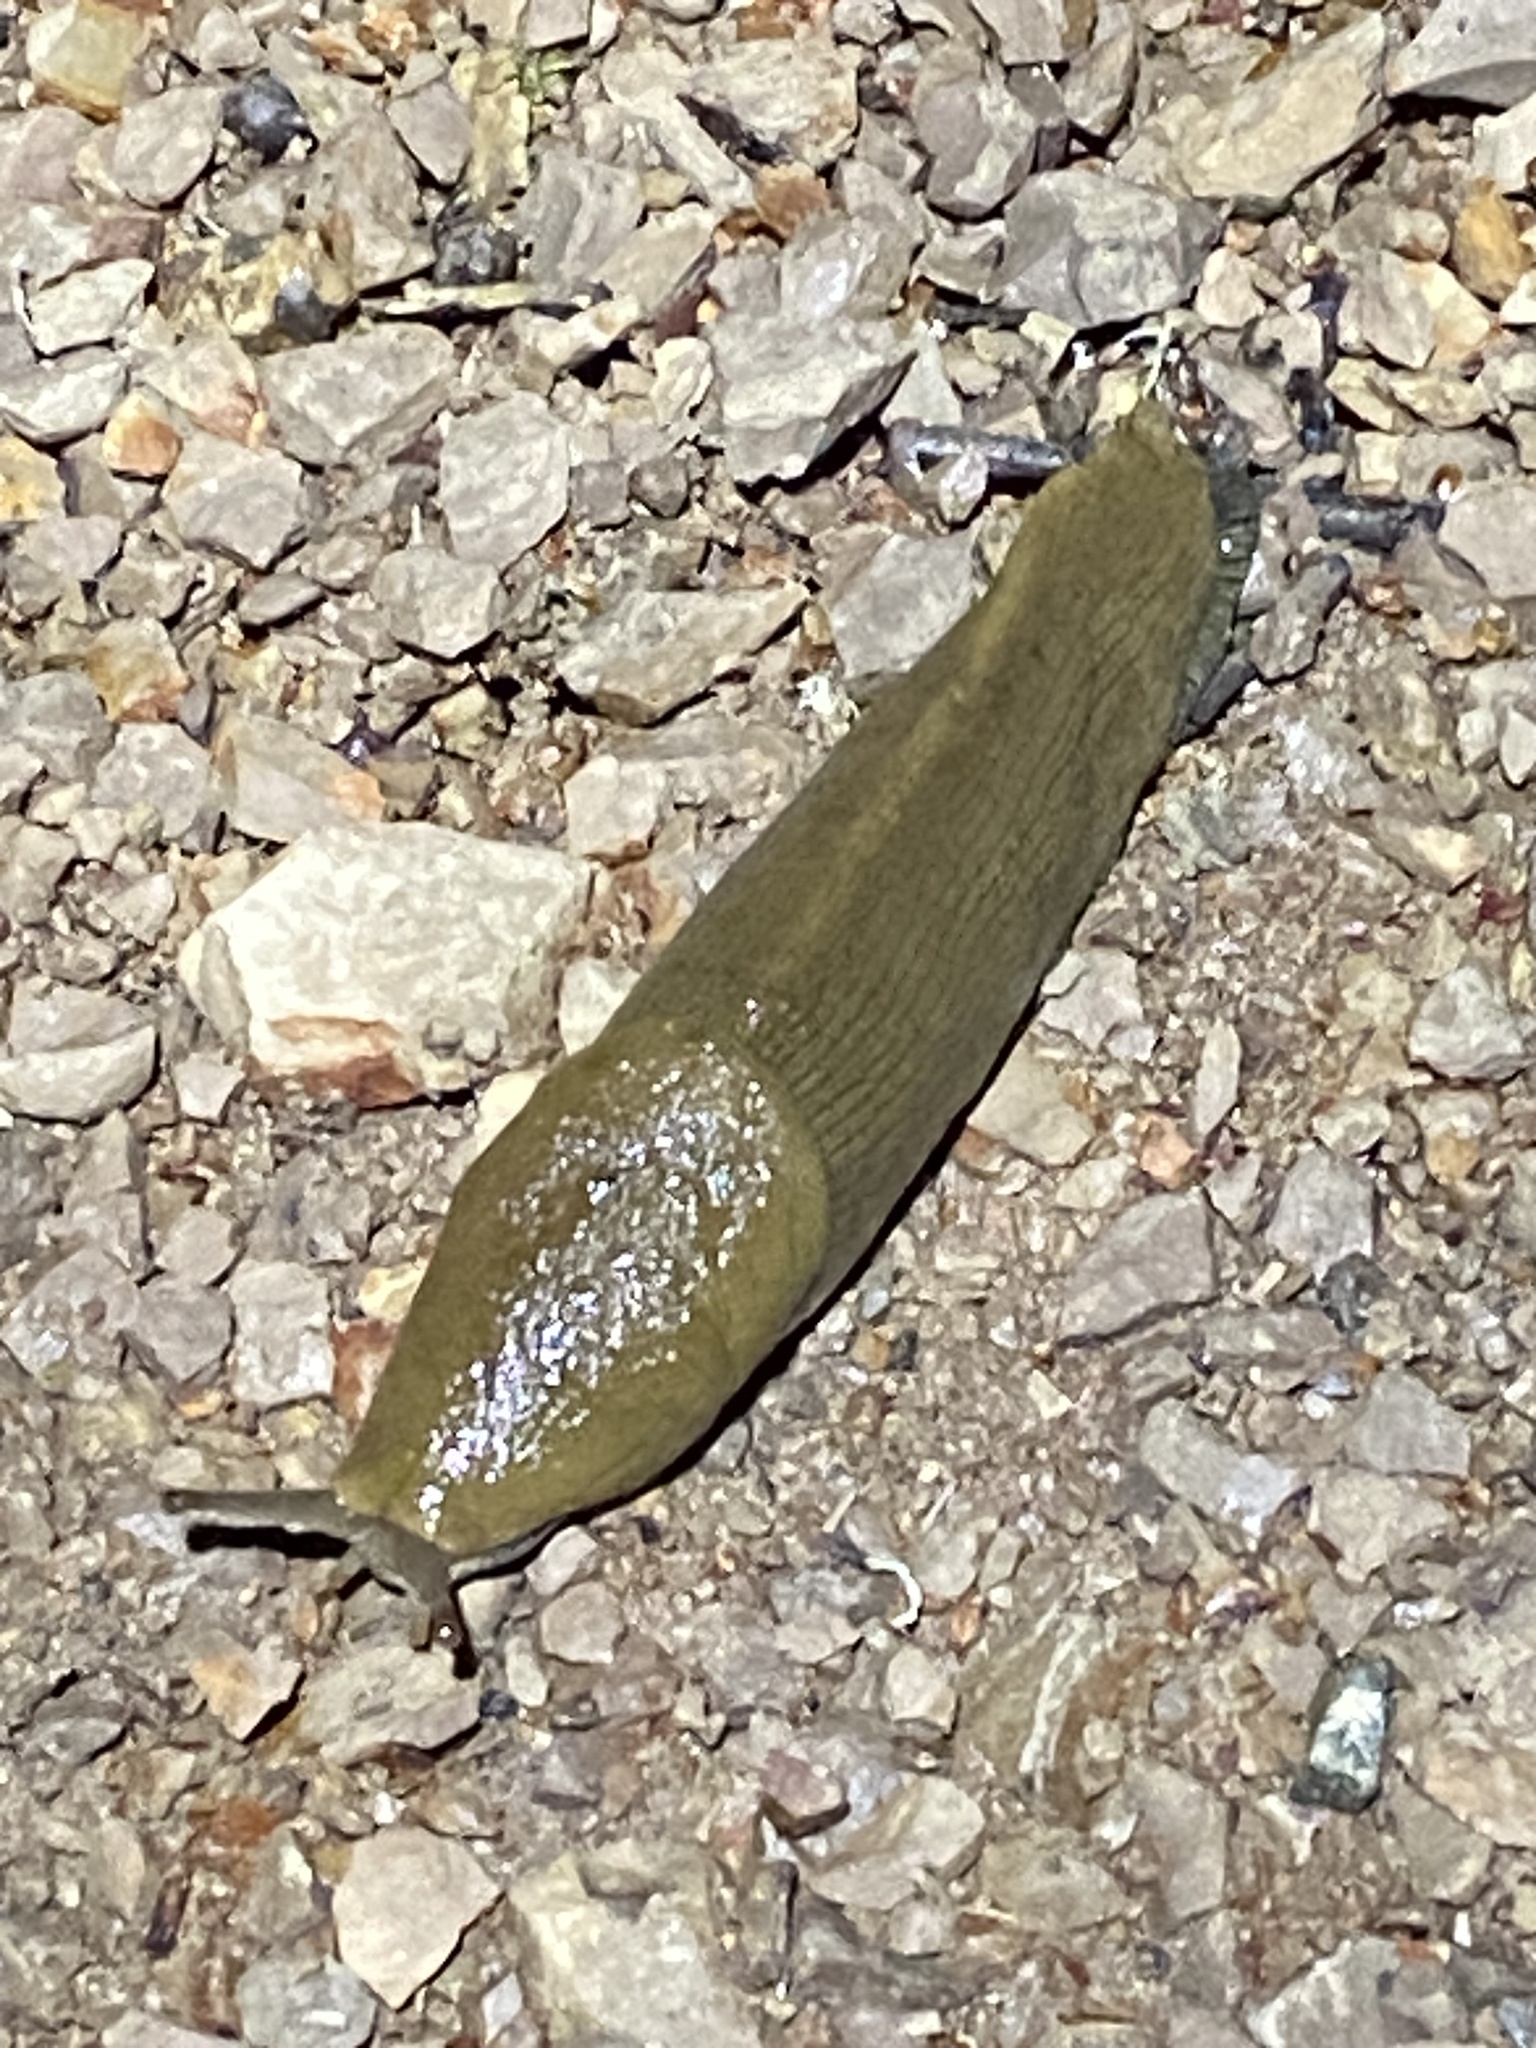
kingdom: Animalia
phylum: Mollusca
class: Gastropoda
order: Stylommatophora
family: Ariolimacidae
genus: Ariolimax
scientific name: Ariolimax buttoni
